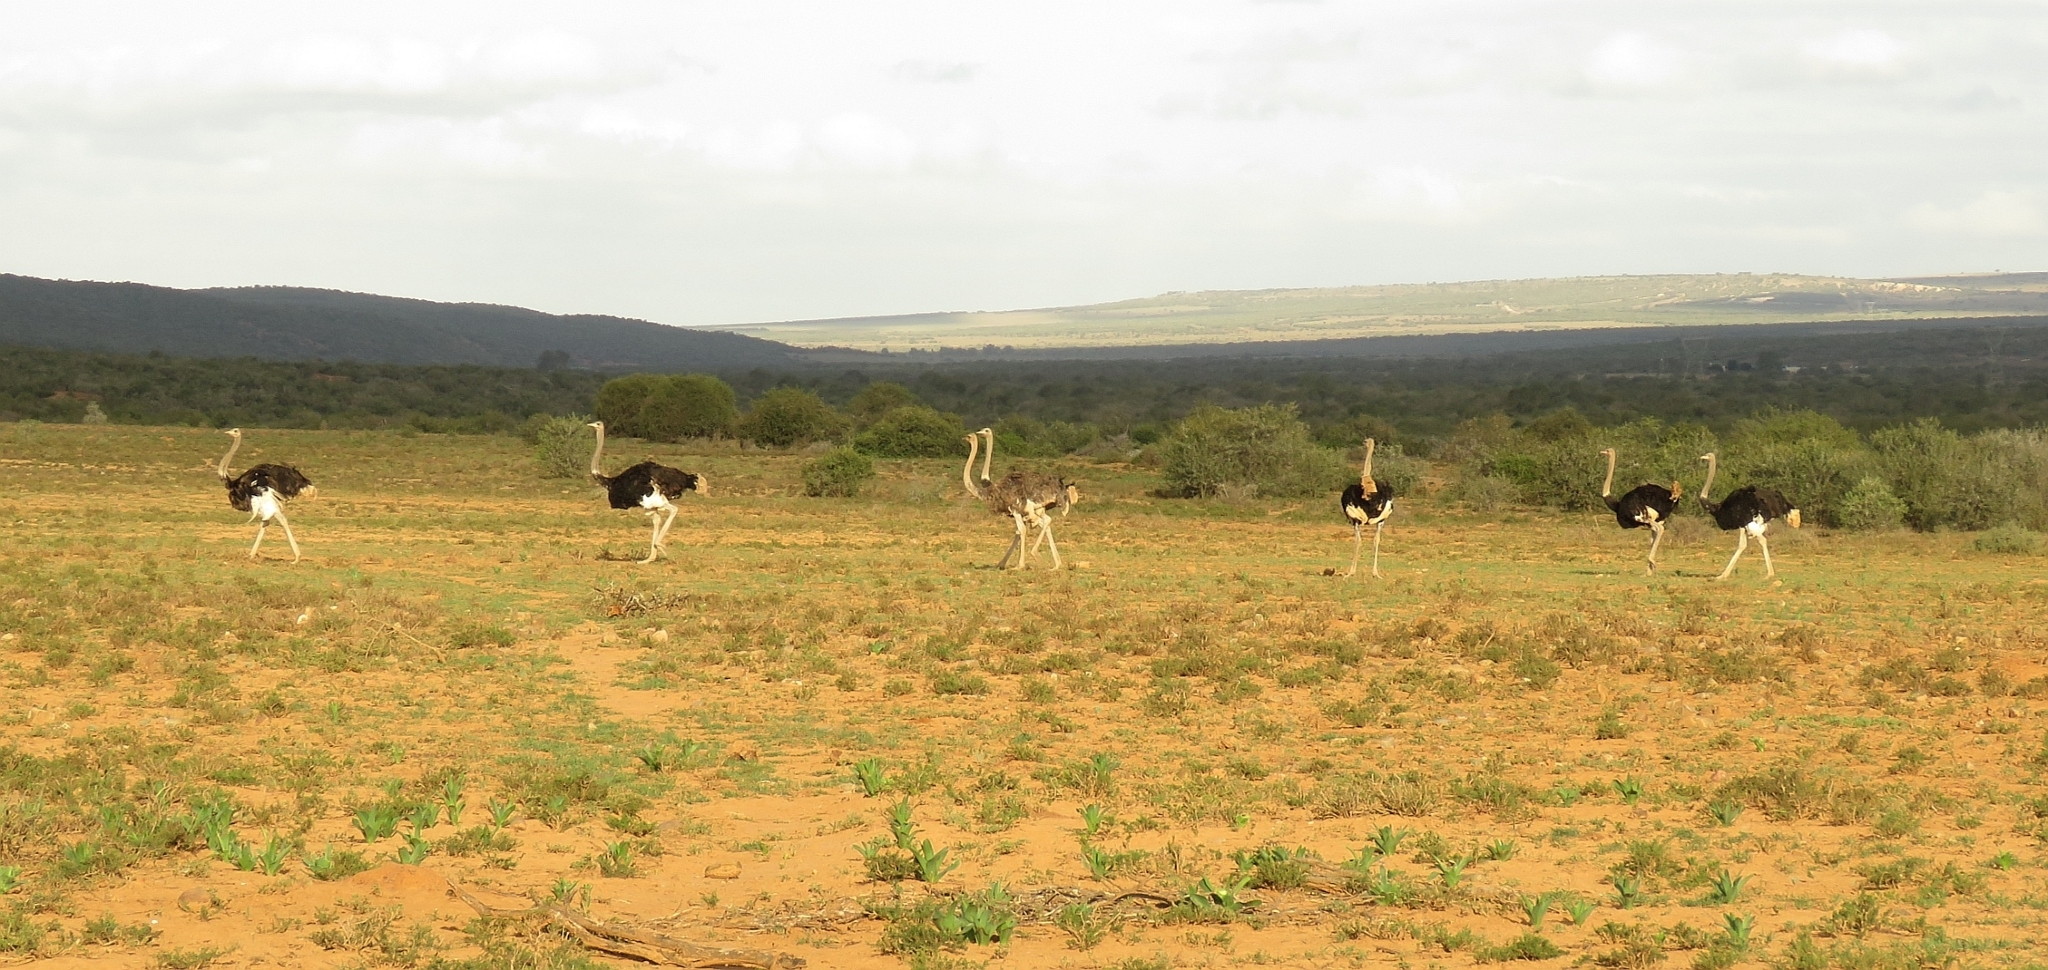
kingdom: Animalia
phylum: Chordata
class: Aves
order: Struthioniformes
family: Struthionidae
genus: Struthio
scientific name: Struthio camelus
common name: Common ostrich
